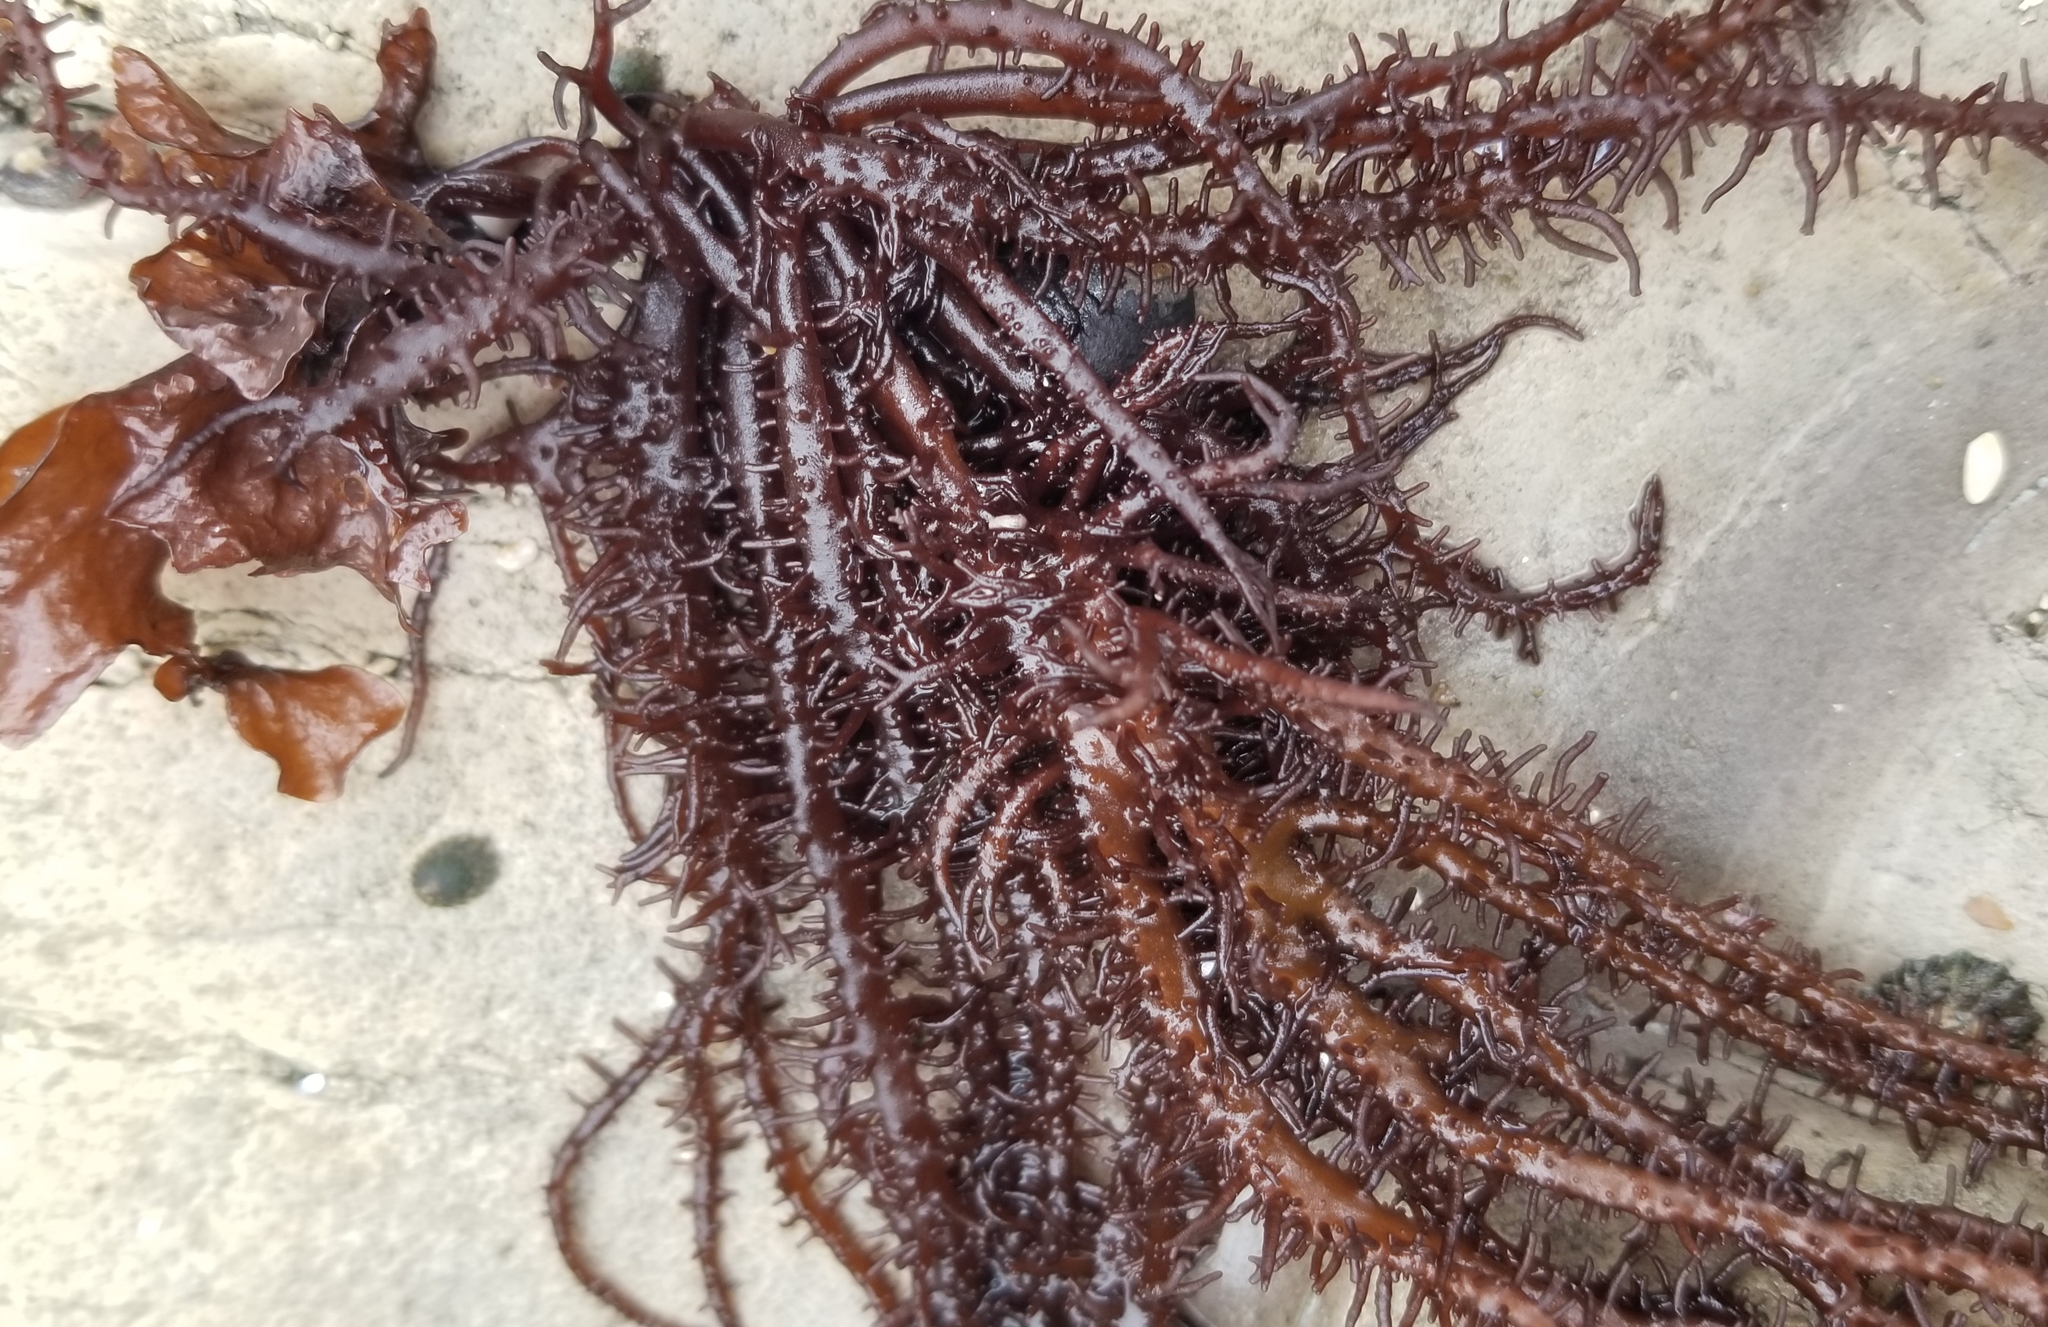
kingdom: Plantae
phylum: Rhodophyta
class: Florideophyceae
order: Nemaliales
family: Liagoraceae
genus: Cumagloia
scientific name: Cumagloia andersonii
